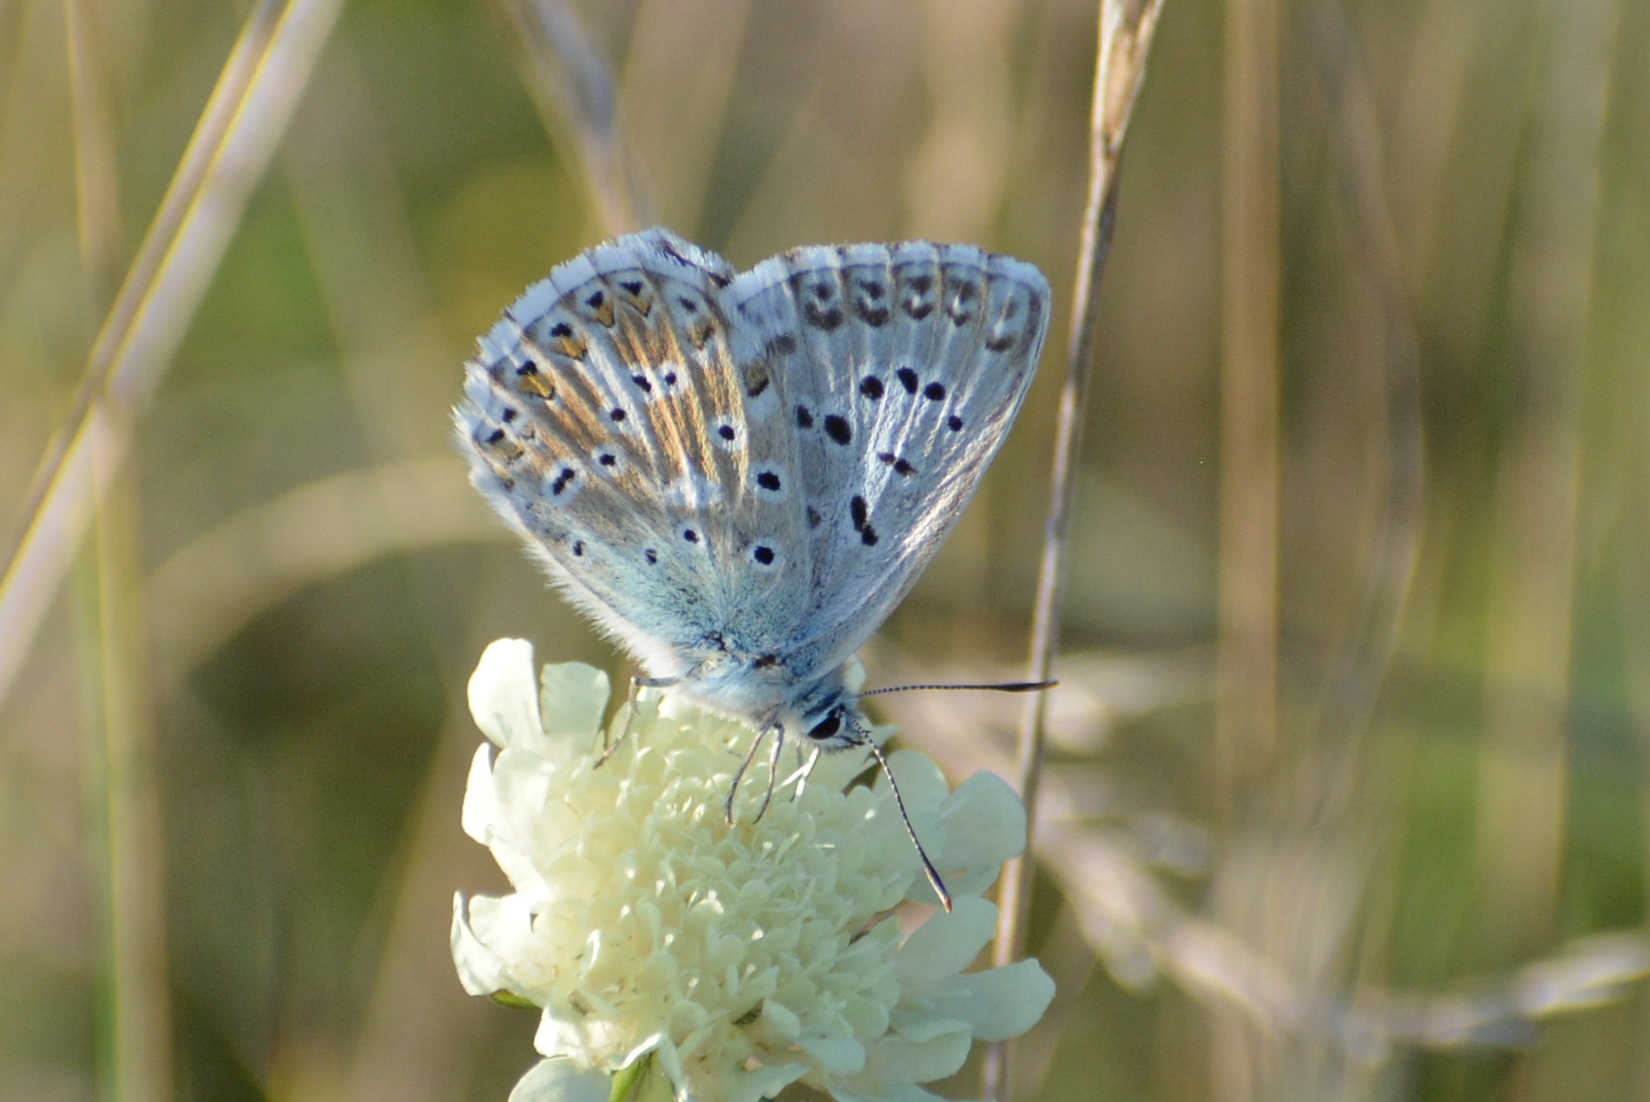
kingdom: Animalia
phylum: Arthropoda
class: Insecta
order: Lepidoptera
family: Lycaenidae
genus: Lysandra
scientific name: Lysandra coridon
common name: Chalkhill blue
